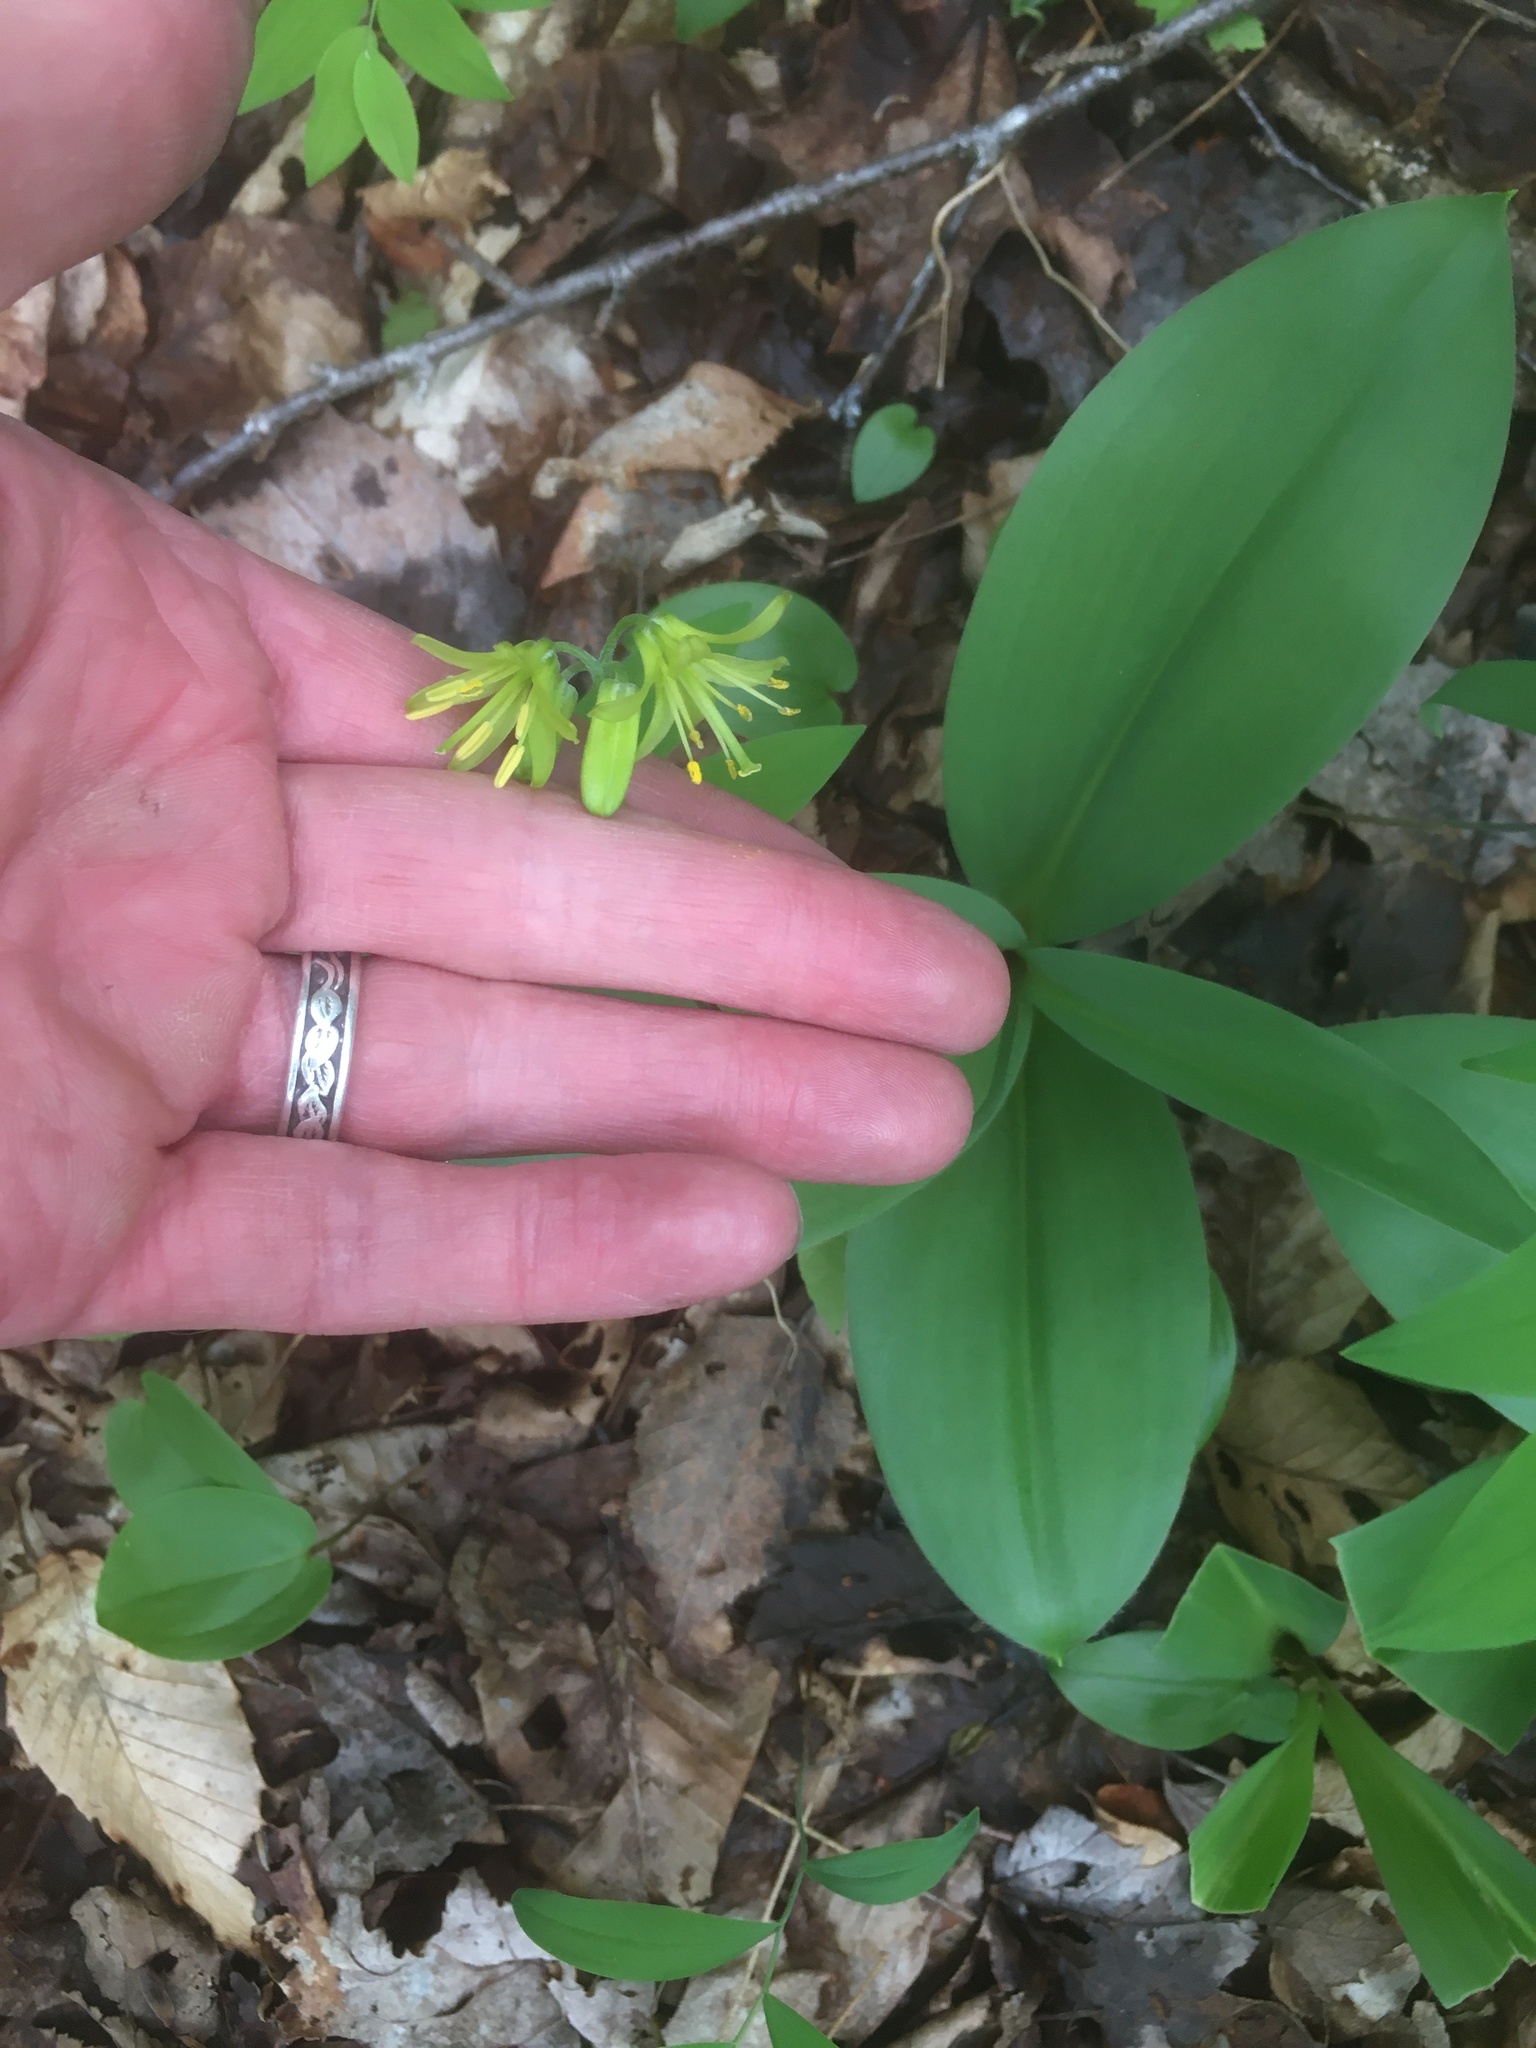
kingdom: Plantae
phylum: Tracheophyta
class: Liliopsida
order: Liliales
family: Liliaceae
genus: Clintonia
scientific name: Clintonia borealis
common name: Yellow clintonia
